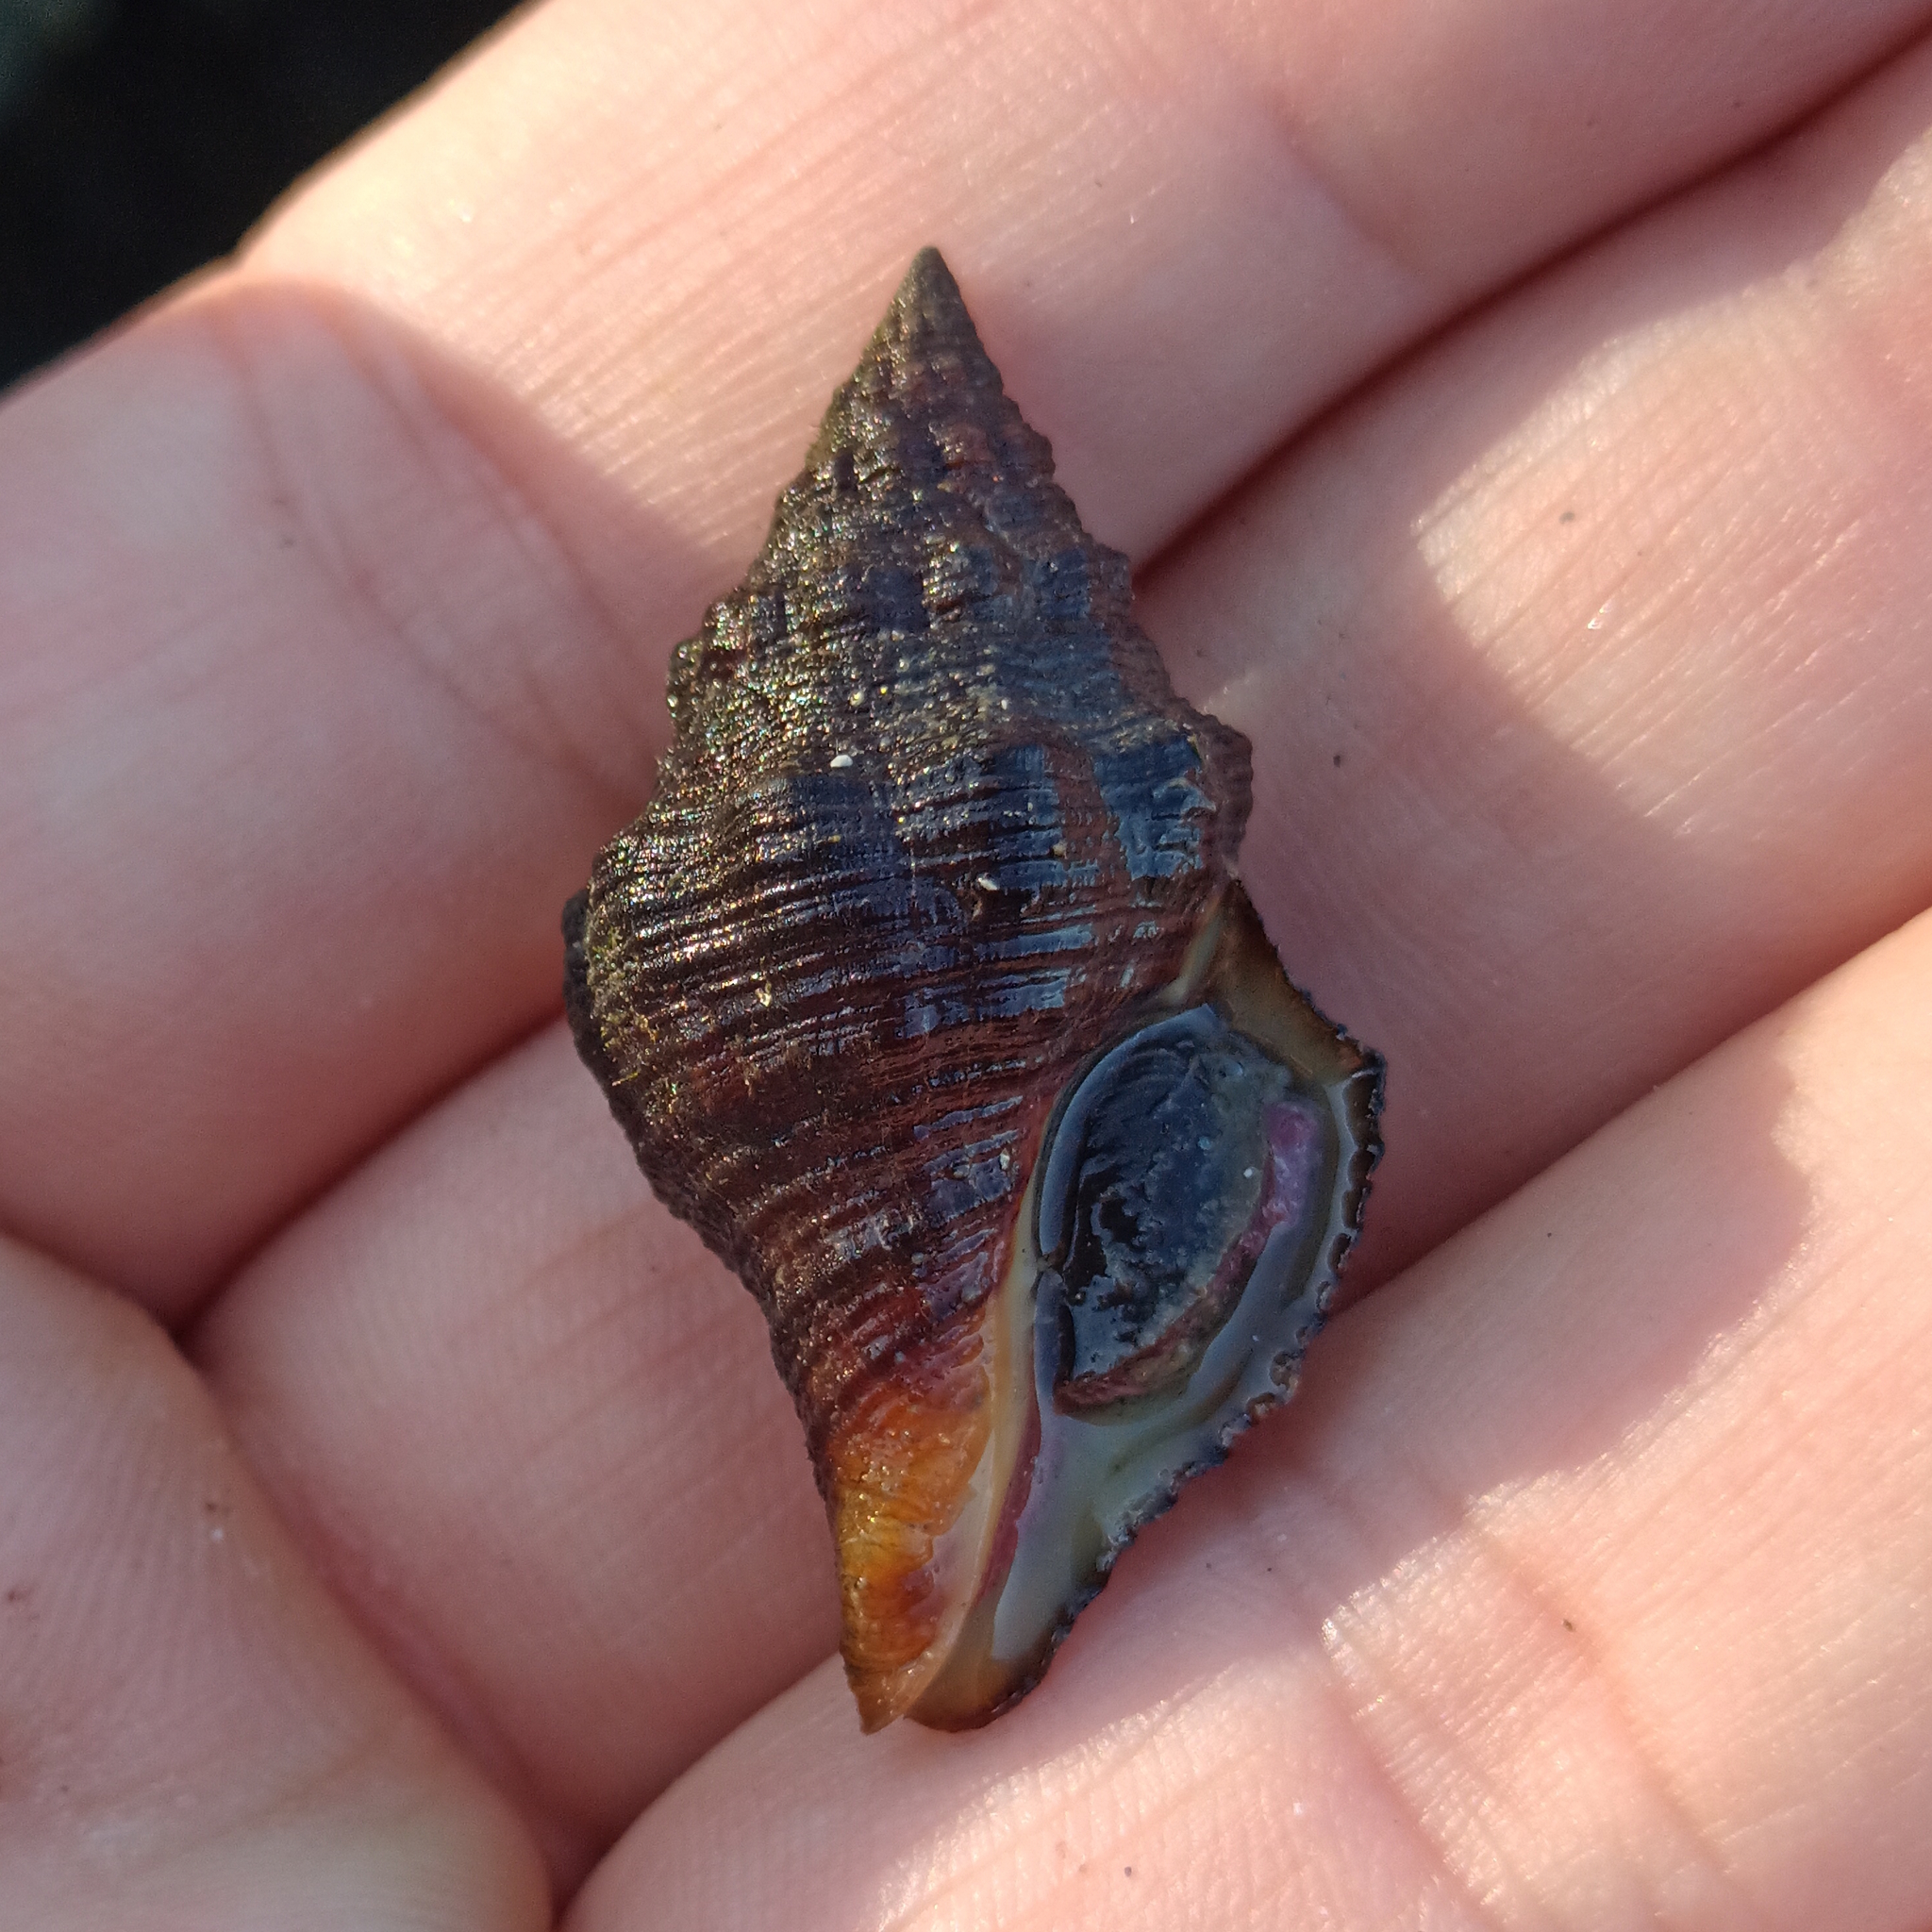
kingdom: Animalia
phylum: Mollusca
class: Gastropoda
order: Neogastropoda
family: Fasciolariidae
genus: Leucozonia
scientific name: Leucozonia nassa
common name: Chestnut latirus
